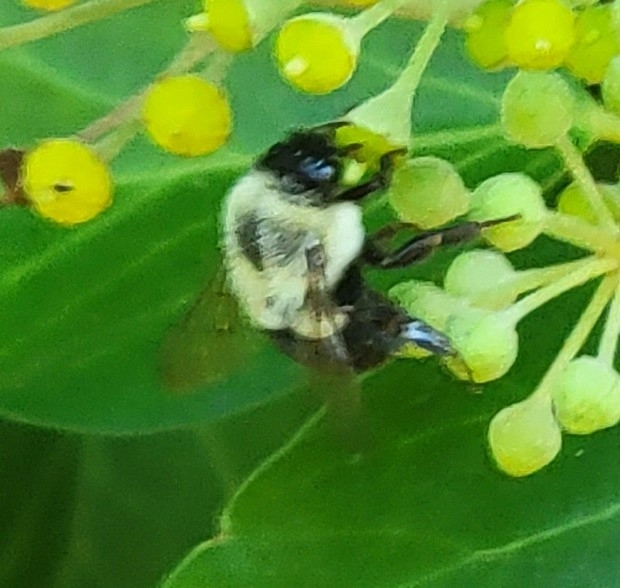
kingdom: Animalia
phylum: Arthropoda
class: Insecta
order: Hymenoptera
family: Apidae
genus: Bombus
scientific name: Bombus impatiens
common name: Common eastern bumble bee
